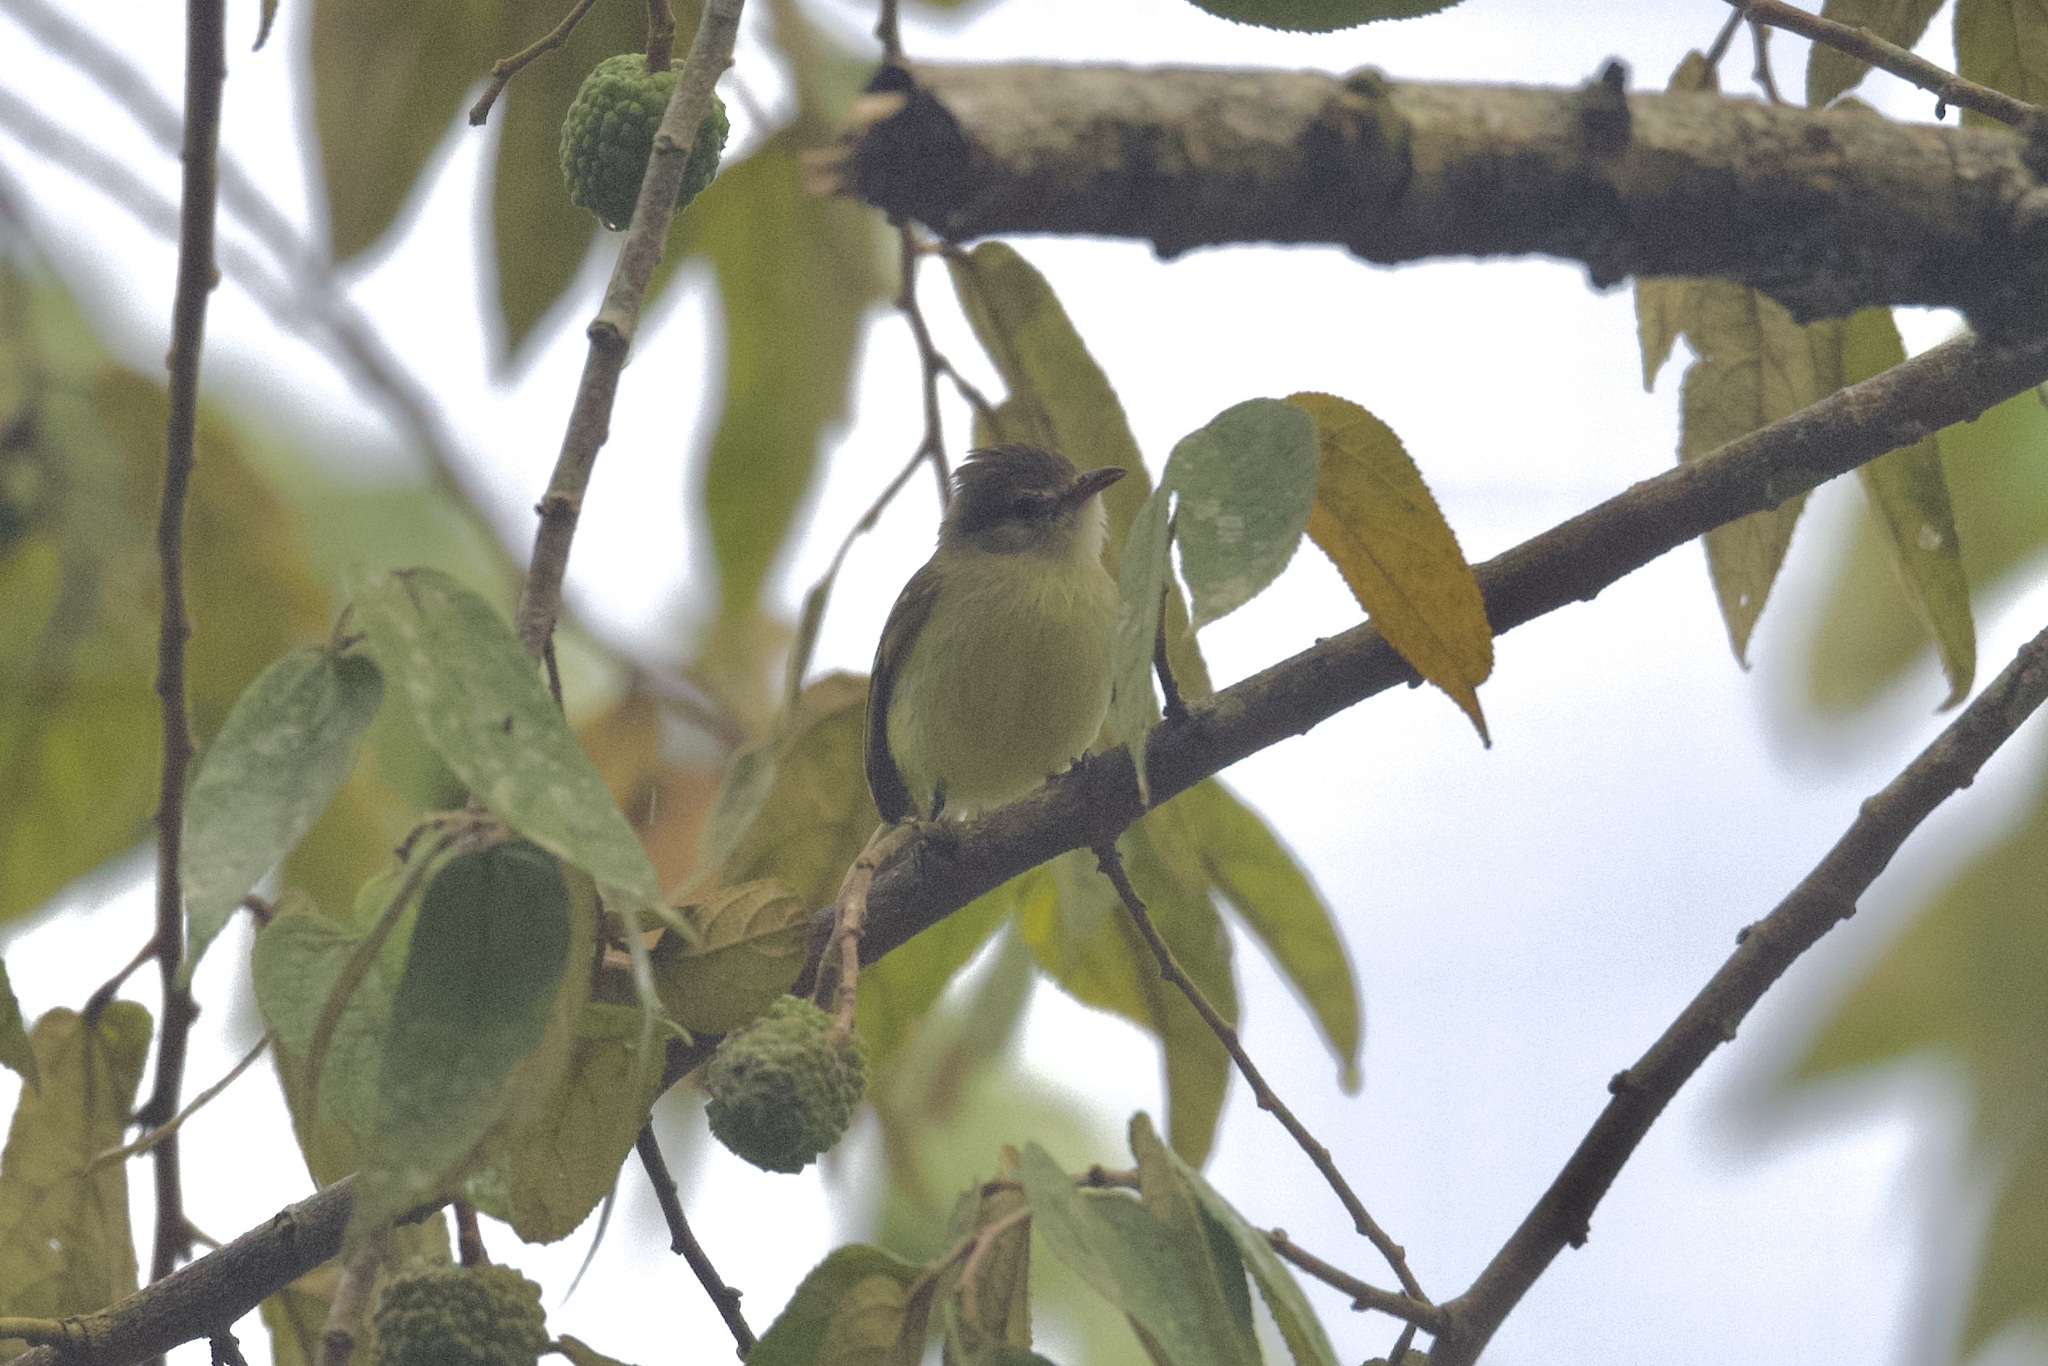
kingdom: Animalia
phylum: Chordata
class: Aves
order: Passeriformes
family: Tyrannidae
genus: Camptostoma
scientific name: Camptostoma obsoletum
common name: Southern beardless-tyrannulet
